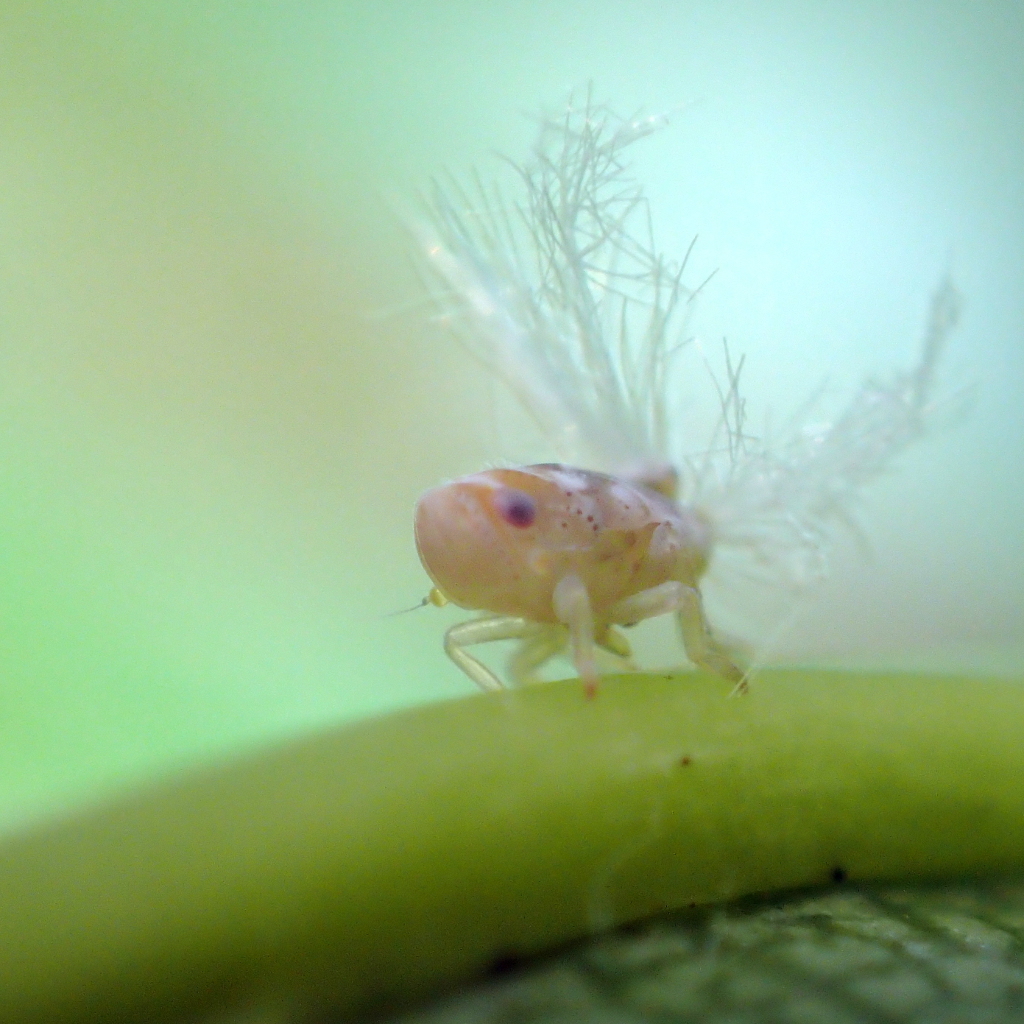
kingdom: Animalia
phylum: Arthropoda
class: Insecta
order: Hemiptera
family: Ricaniidae
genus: Scolypopa
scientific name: Scolypopa australis
